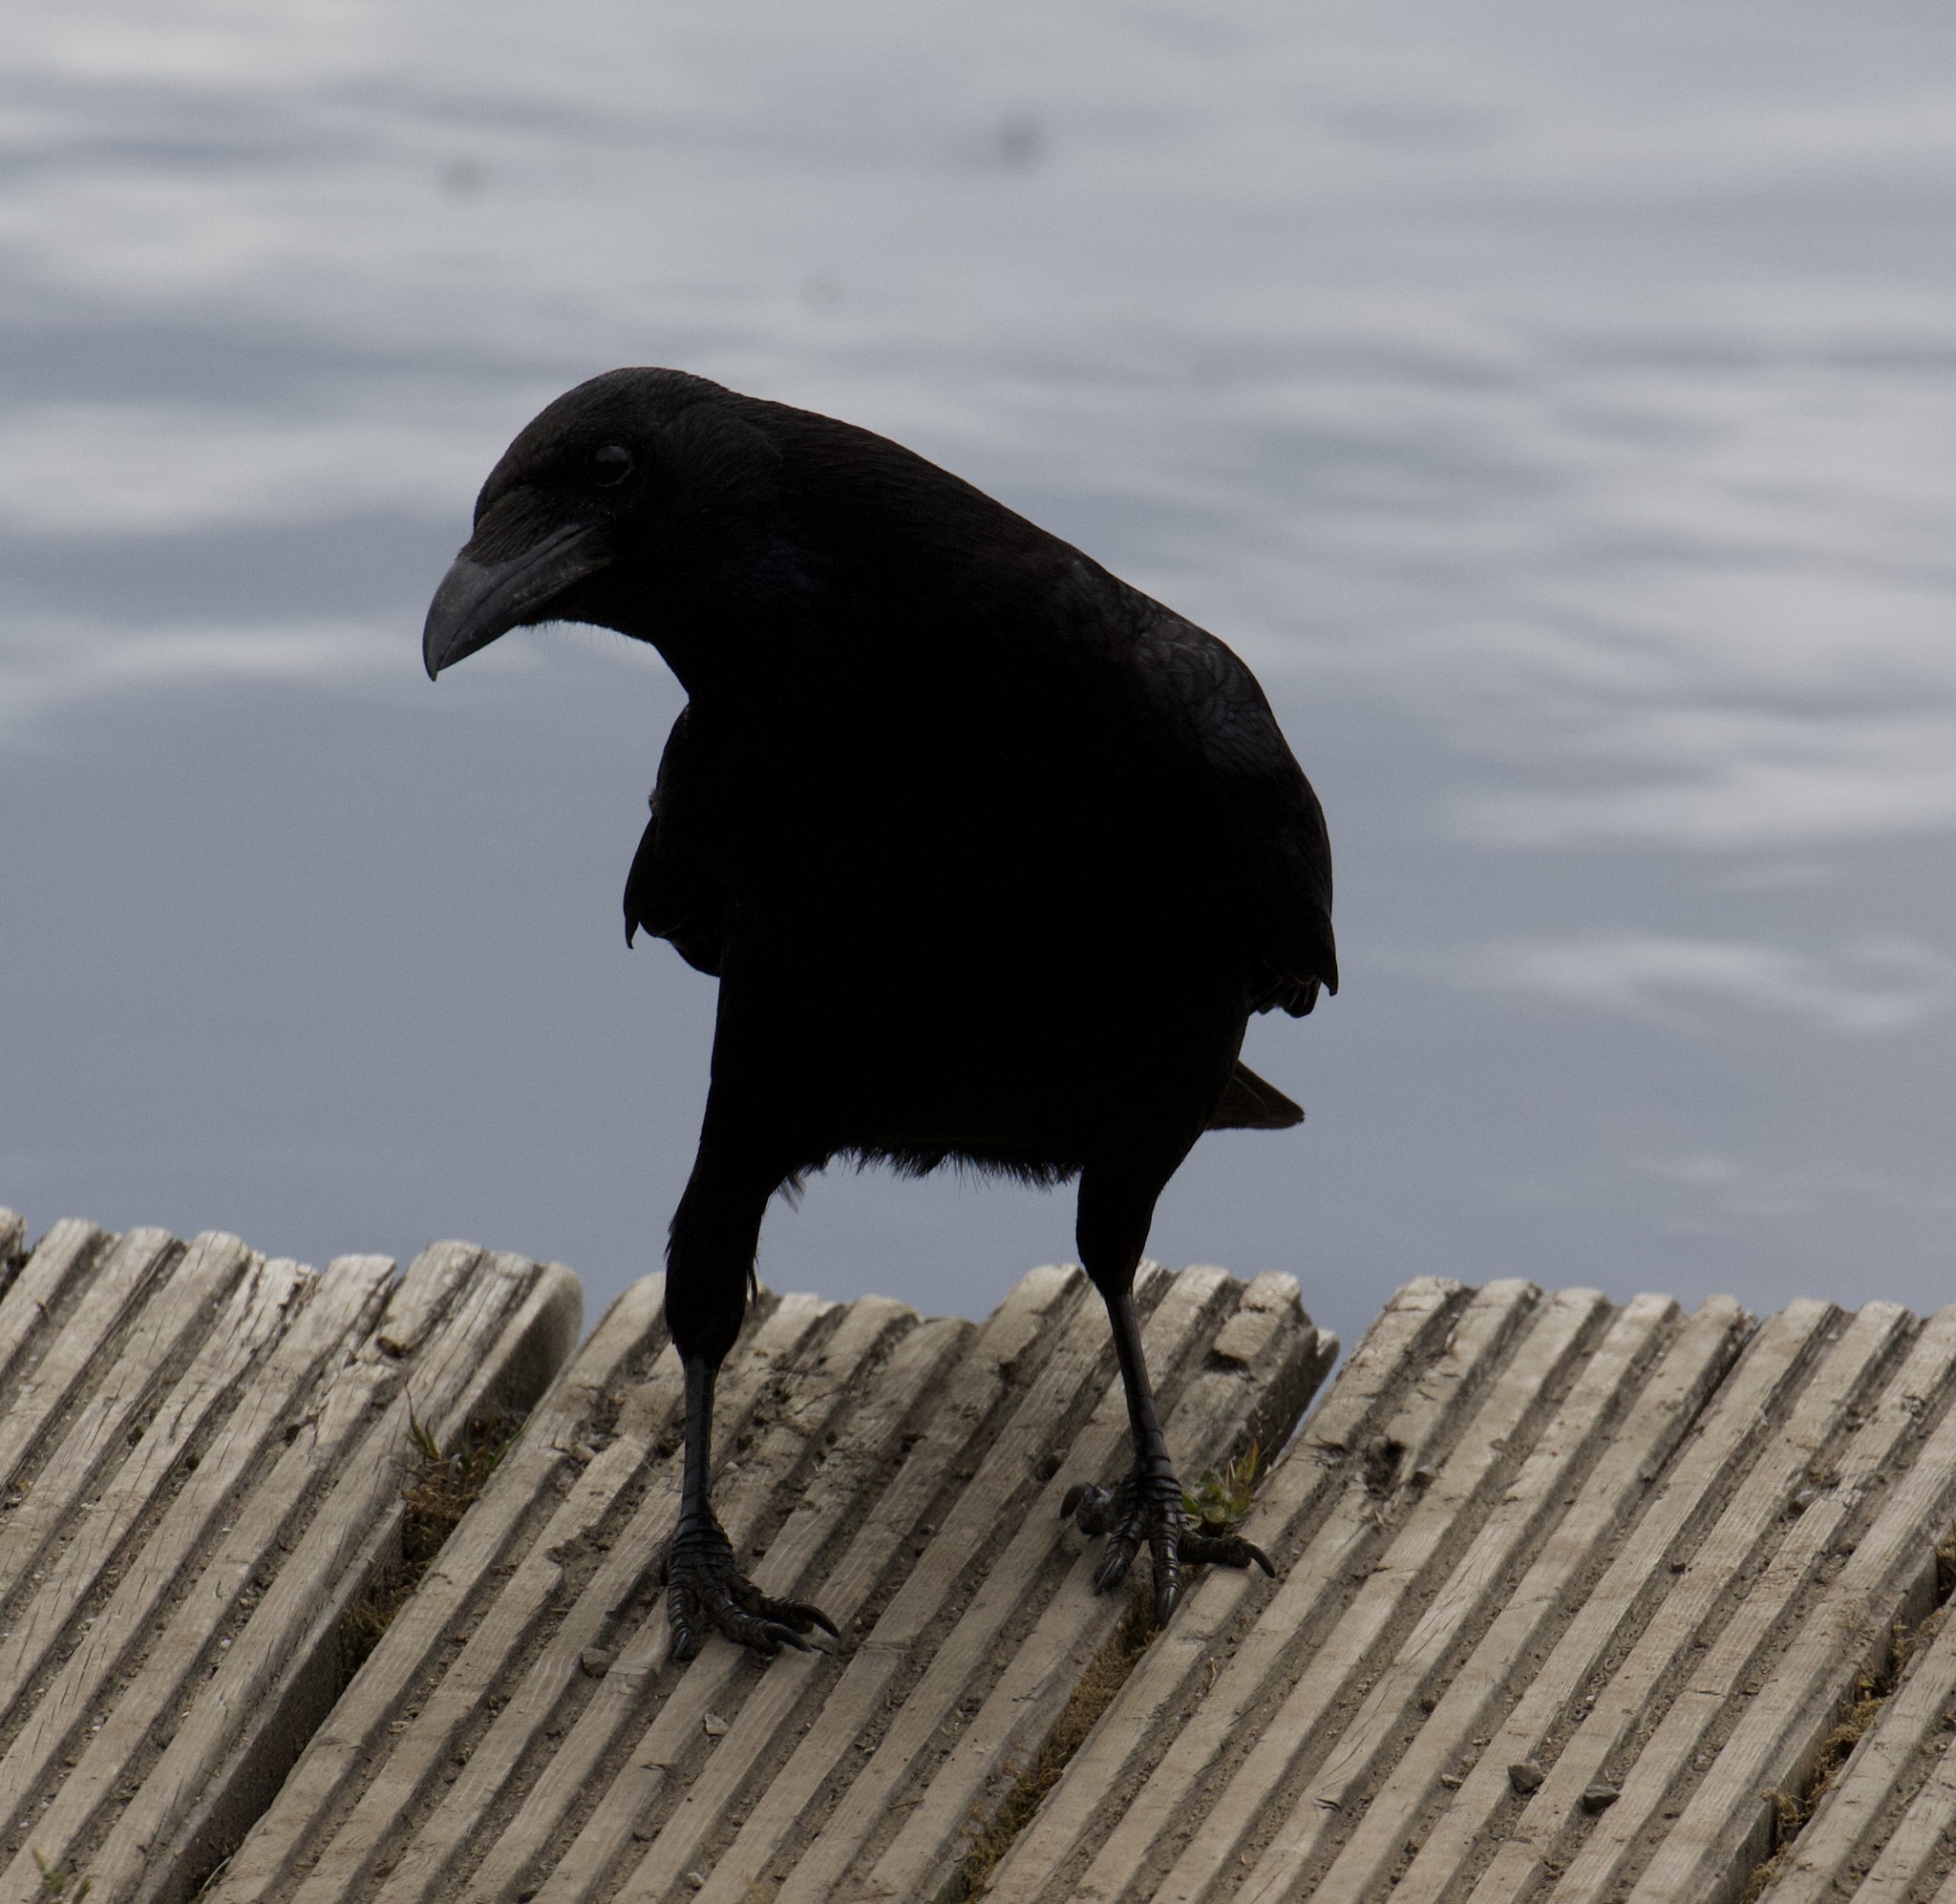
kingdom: Animalia
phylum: Chordata
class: Aves
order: Passeriformes
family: Corvidae
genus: Corvus
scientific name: Corvus corone
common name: Carrion crow
